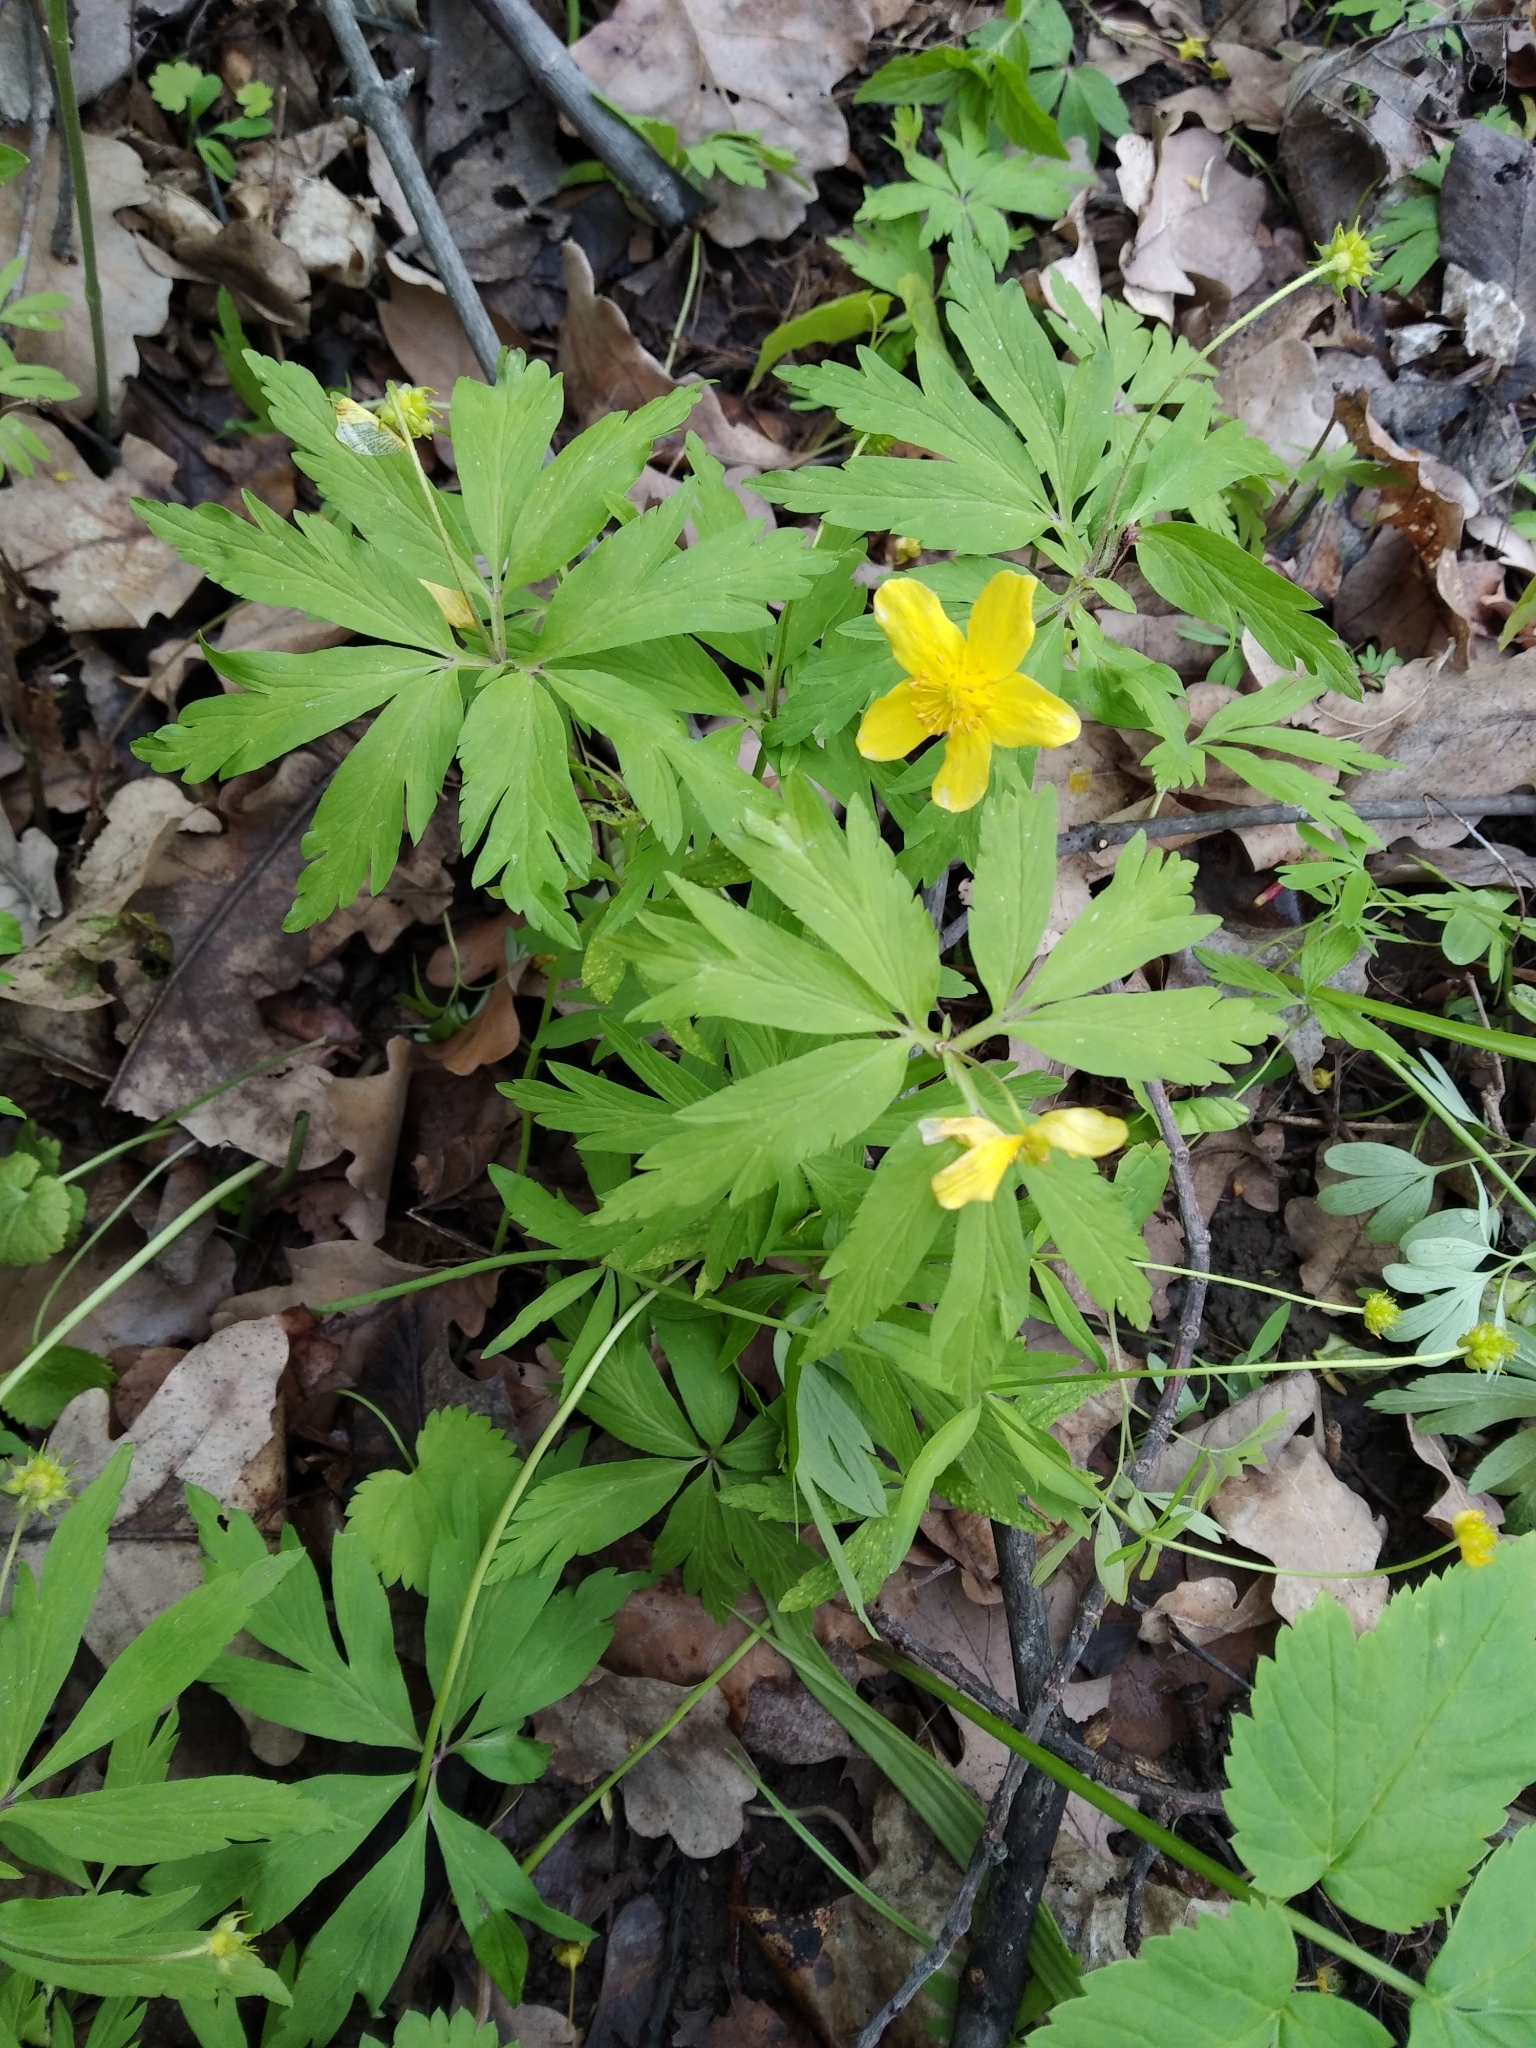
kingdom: Plantae
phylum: Tracheophyta
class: Magnoliopsida
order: Ranunculales
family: Ranunculaceae
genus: Anemone
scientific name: Anemone ranunculoides
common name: Yellow anemone
